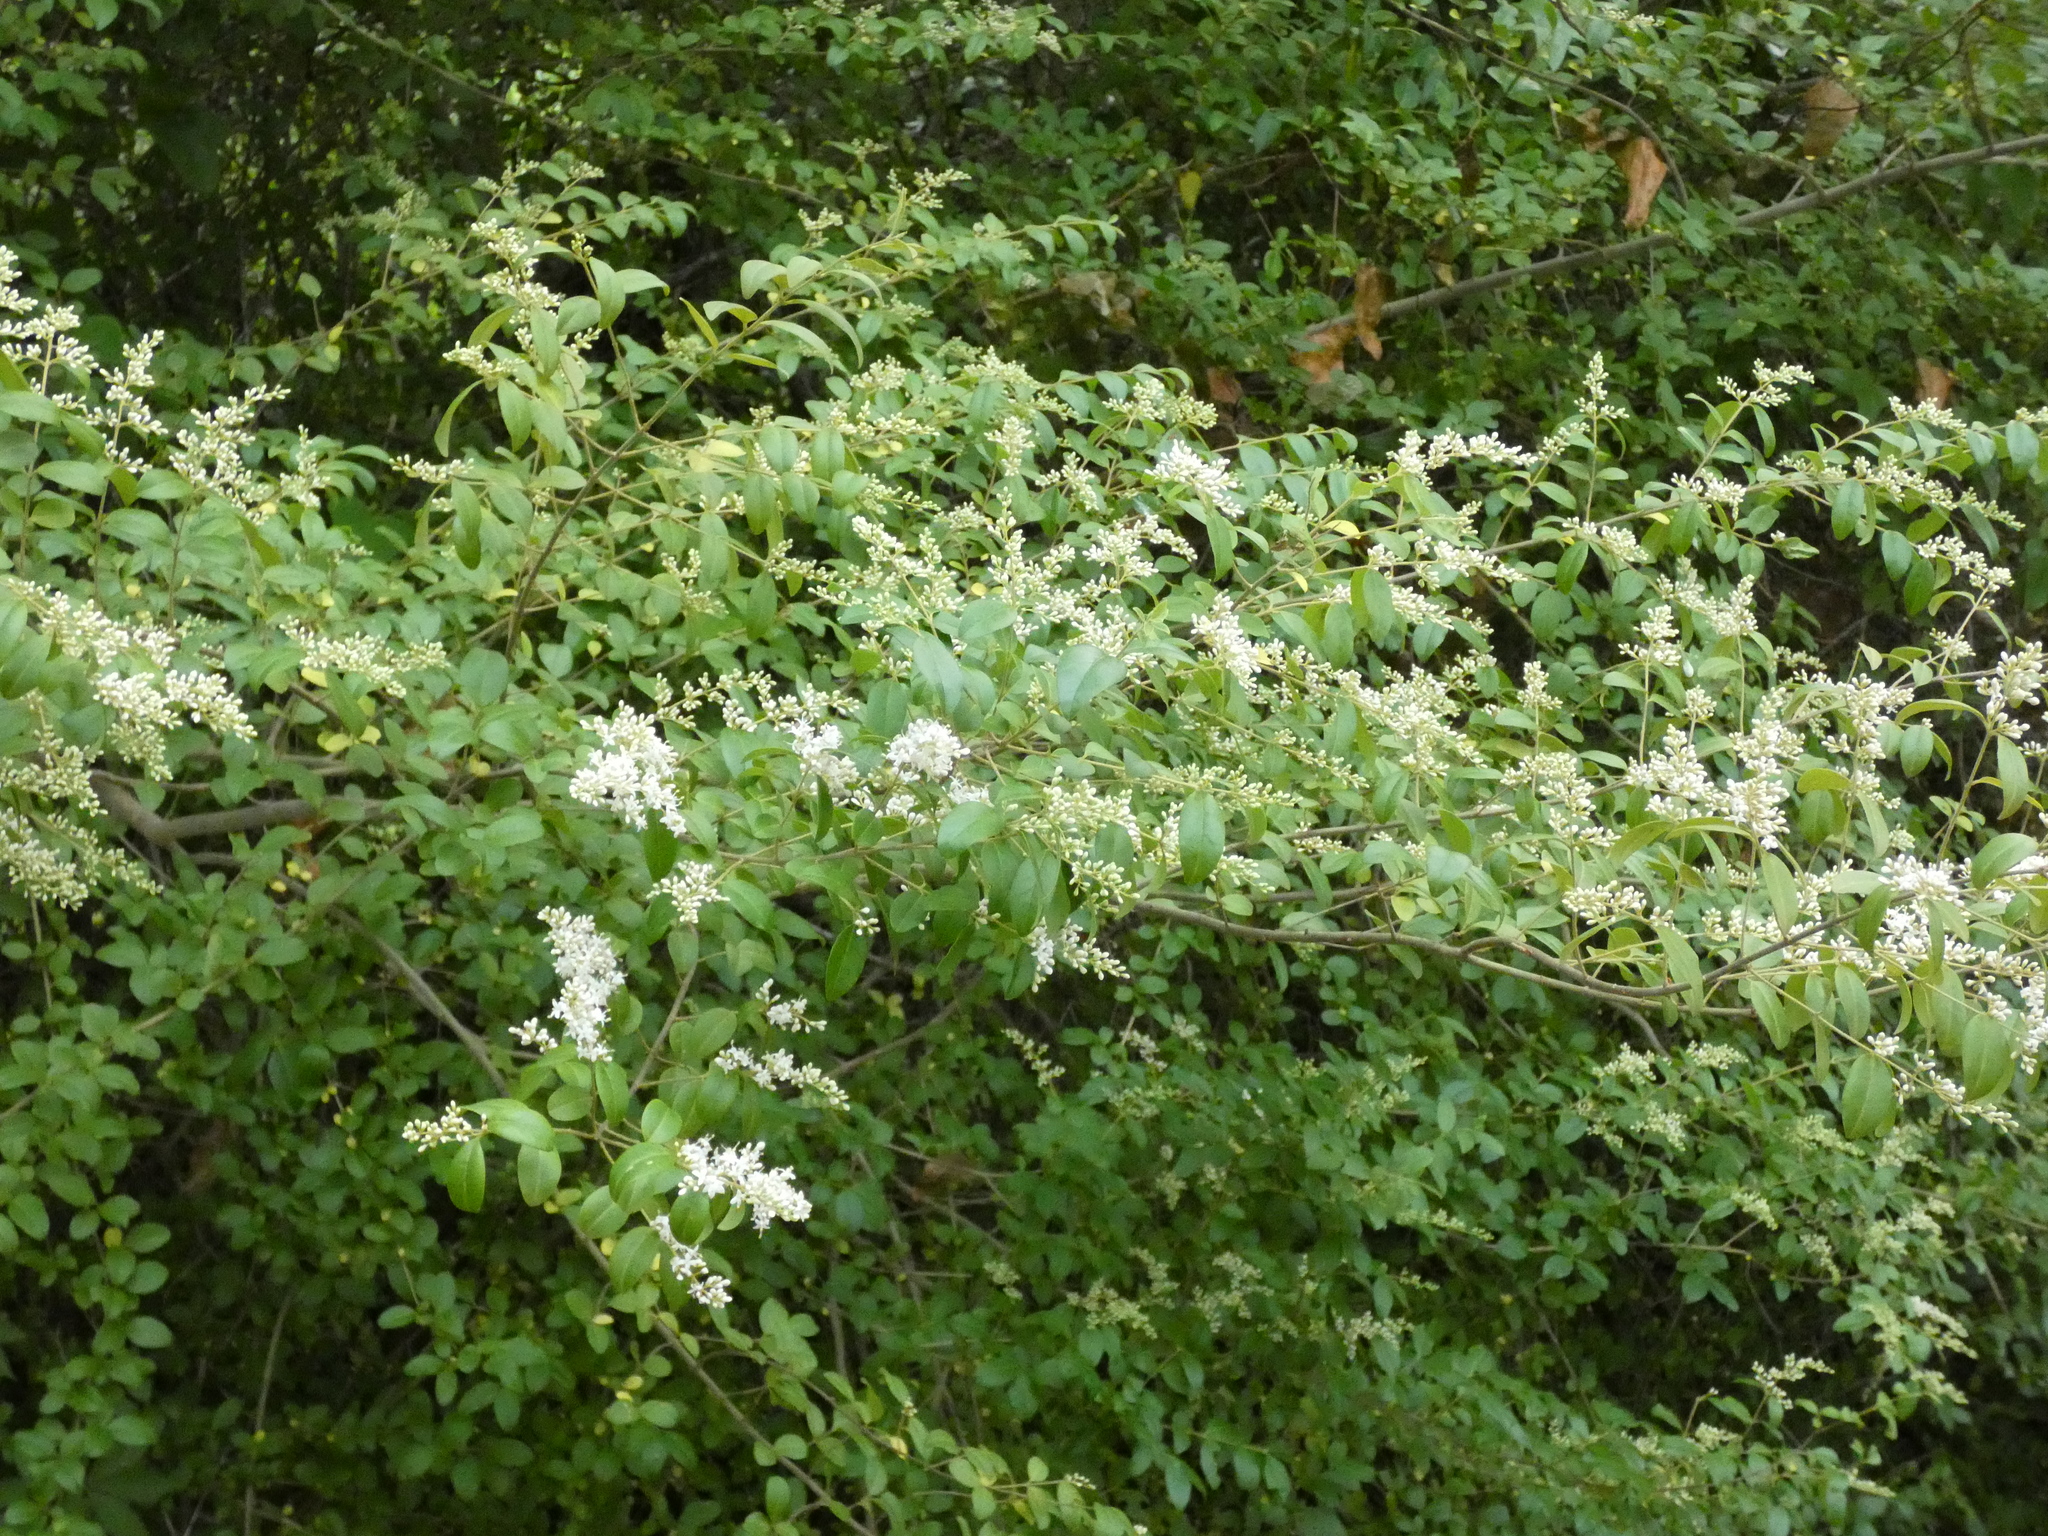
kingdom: Plantae
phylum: Tracheophyta
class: Magnoliopsida
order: Lamiales
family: Oleaceae
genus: Ligustrum
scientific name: Ligustrum sinense
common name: Chinese privet
